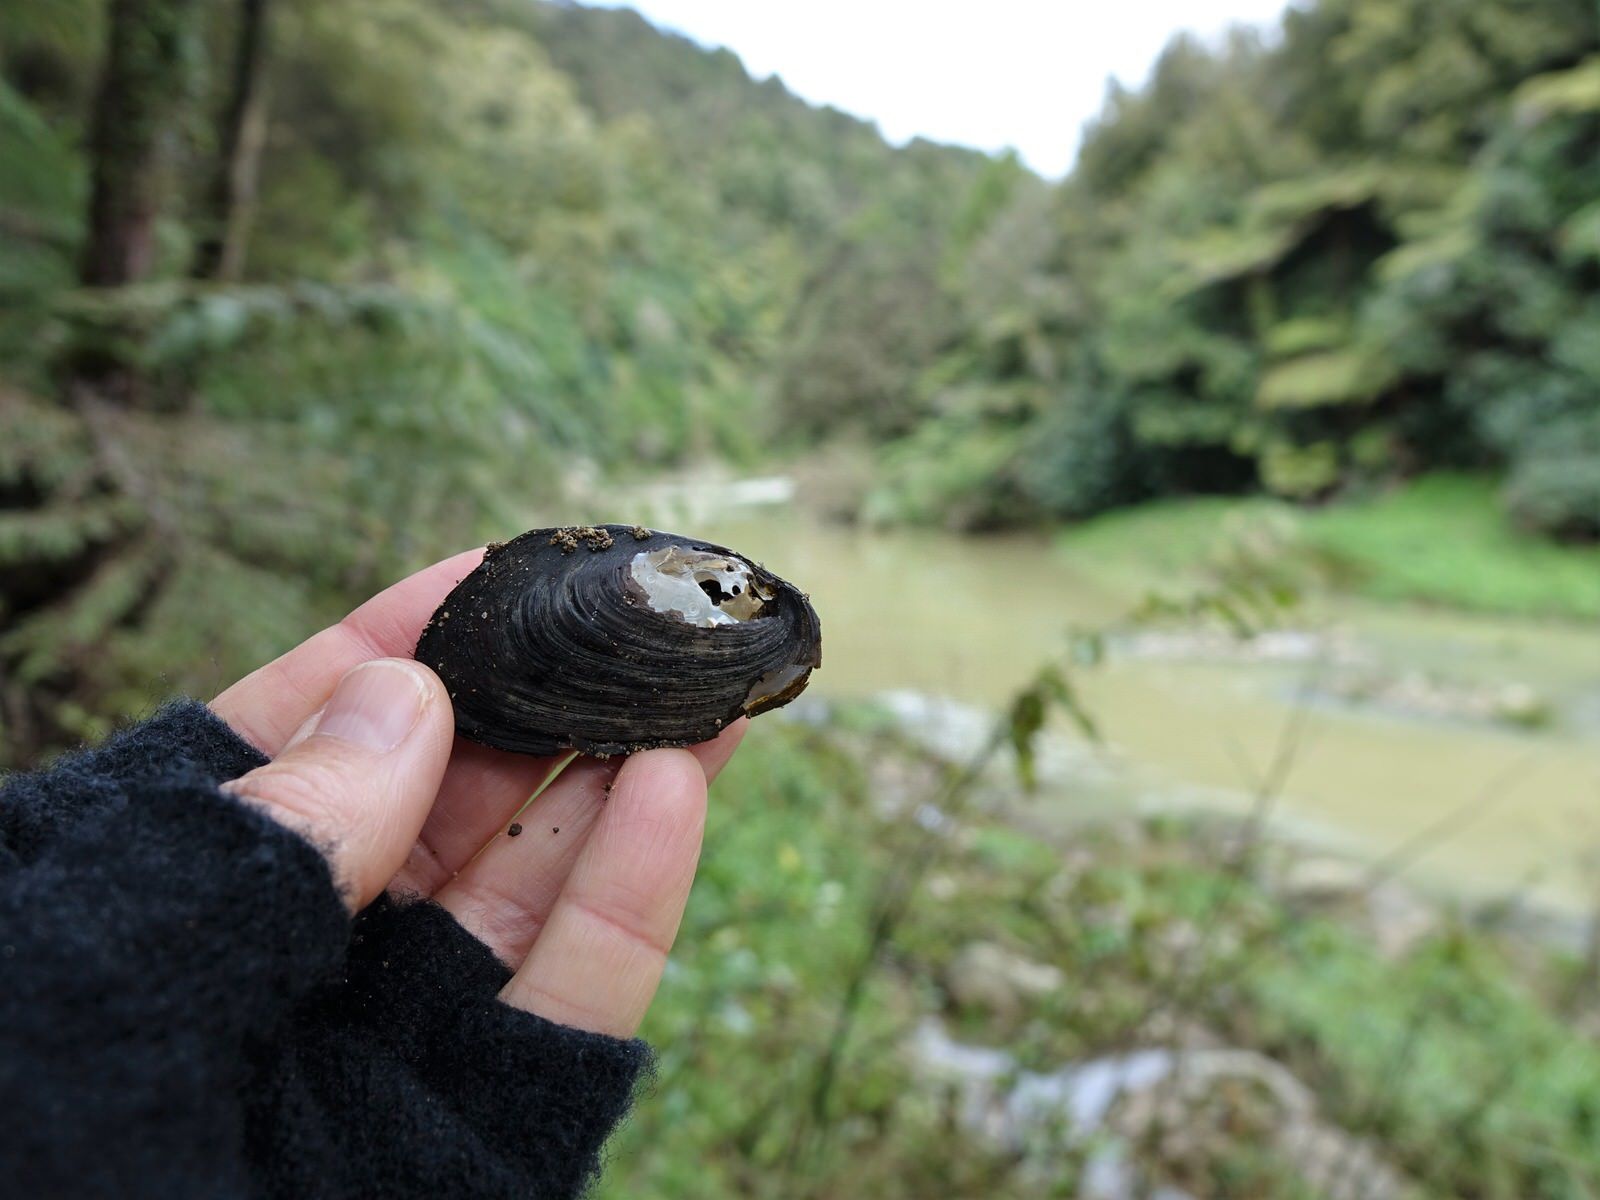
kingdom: Animalia
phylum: Mollusca
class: Bivalvia
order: Unionida
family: Hyriidae
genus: Echyridella
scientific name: Echyridella menziesii
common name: New zealand freshwater mussel
